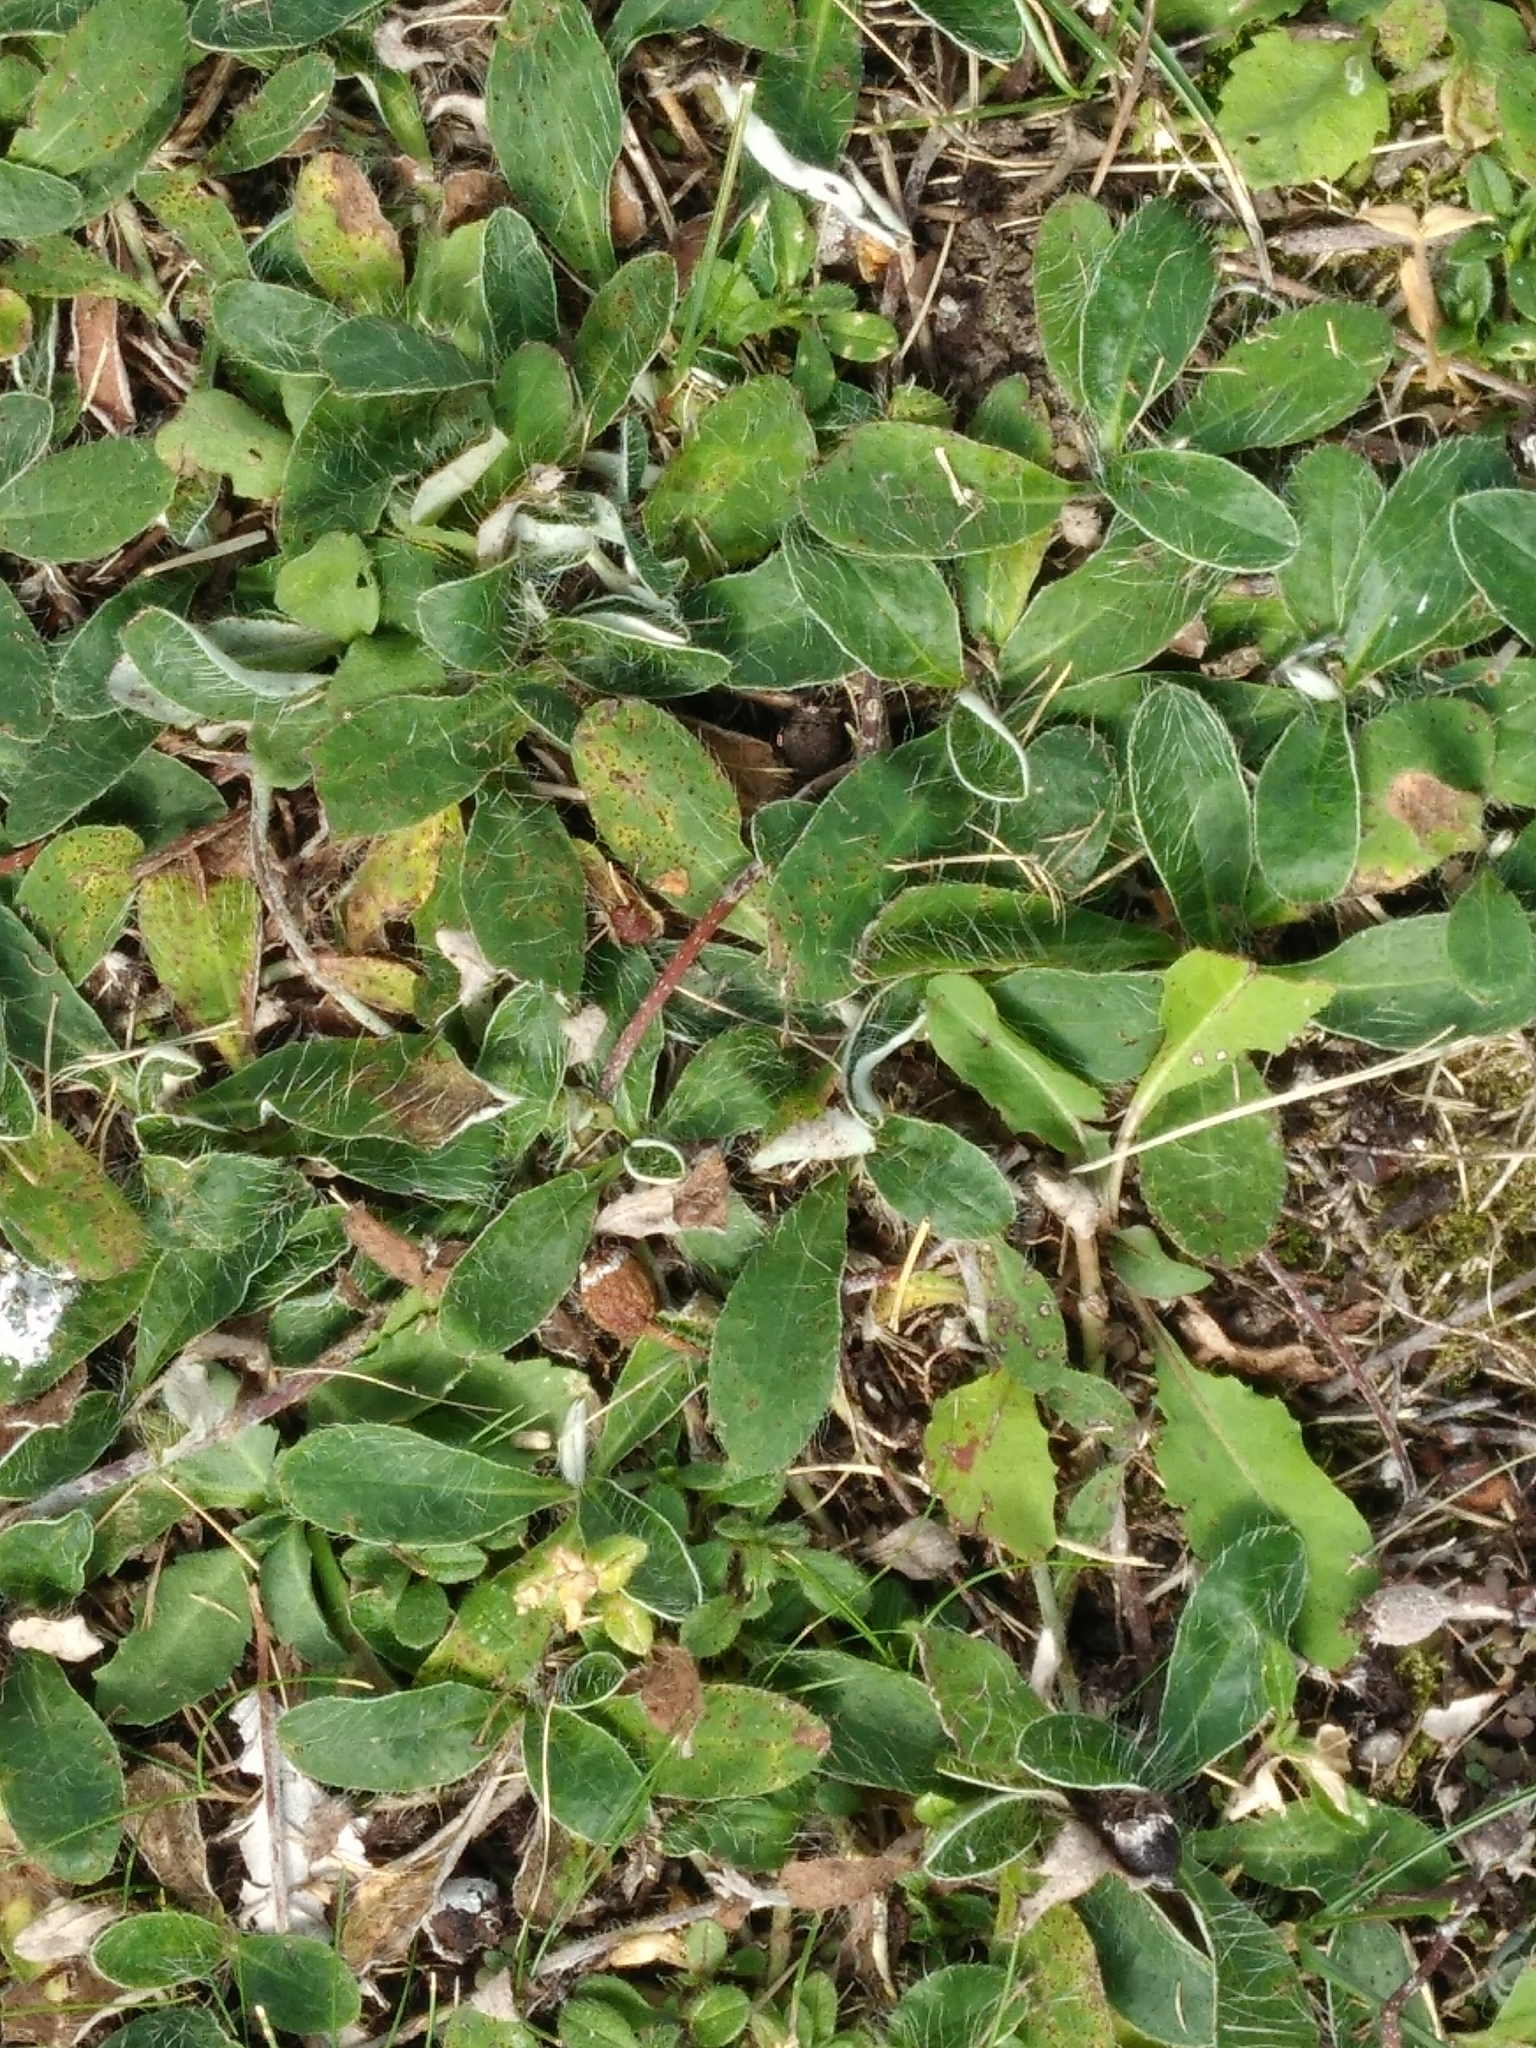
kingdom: Plantae
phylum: Tracheophyta
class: Magnoliopsida
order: Asterales
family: Asteraceae
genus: Pilosella
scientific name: Pilosella officinarum
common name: Mouse-ear hawkweed
